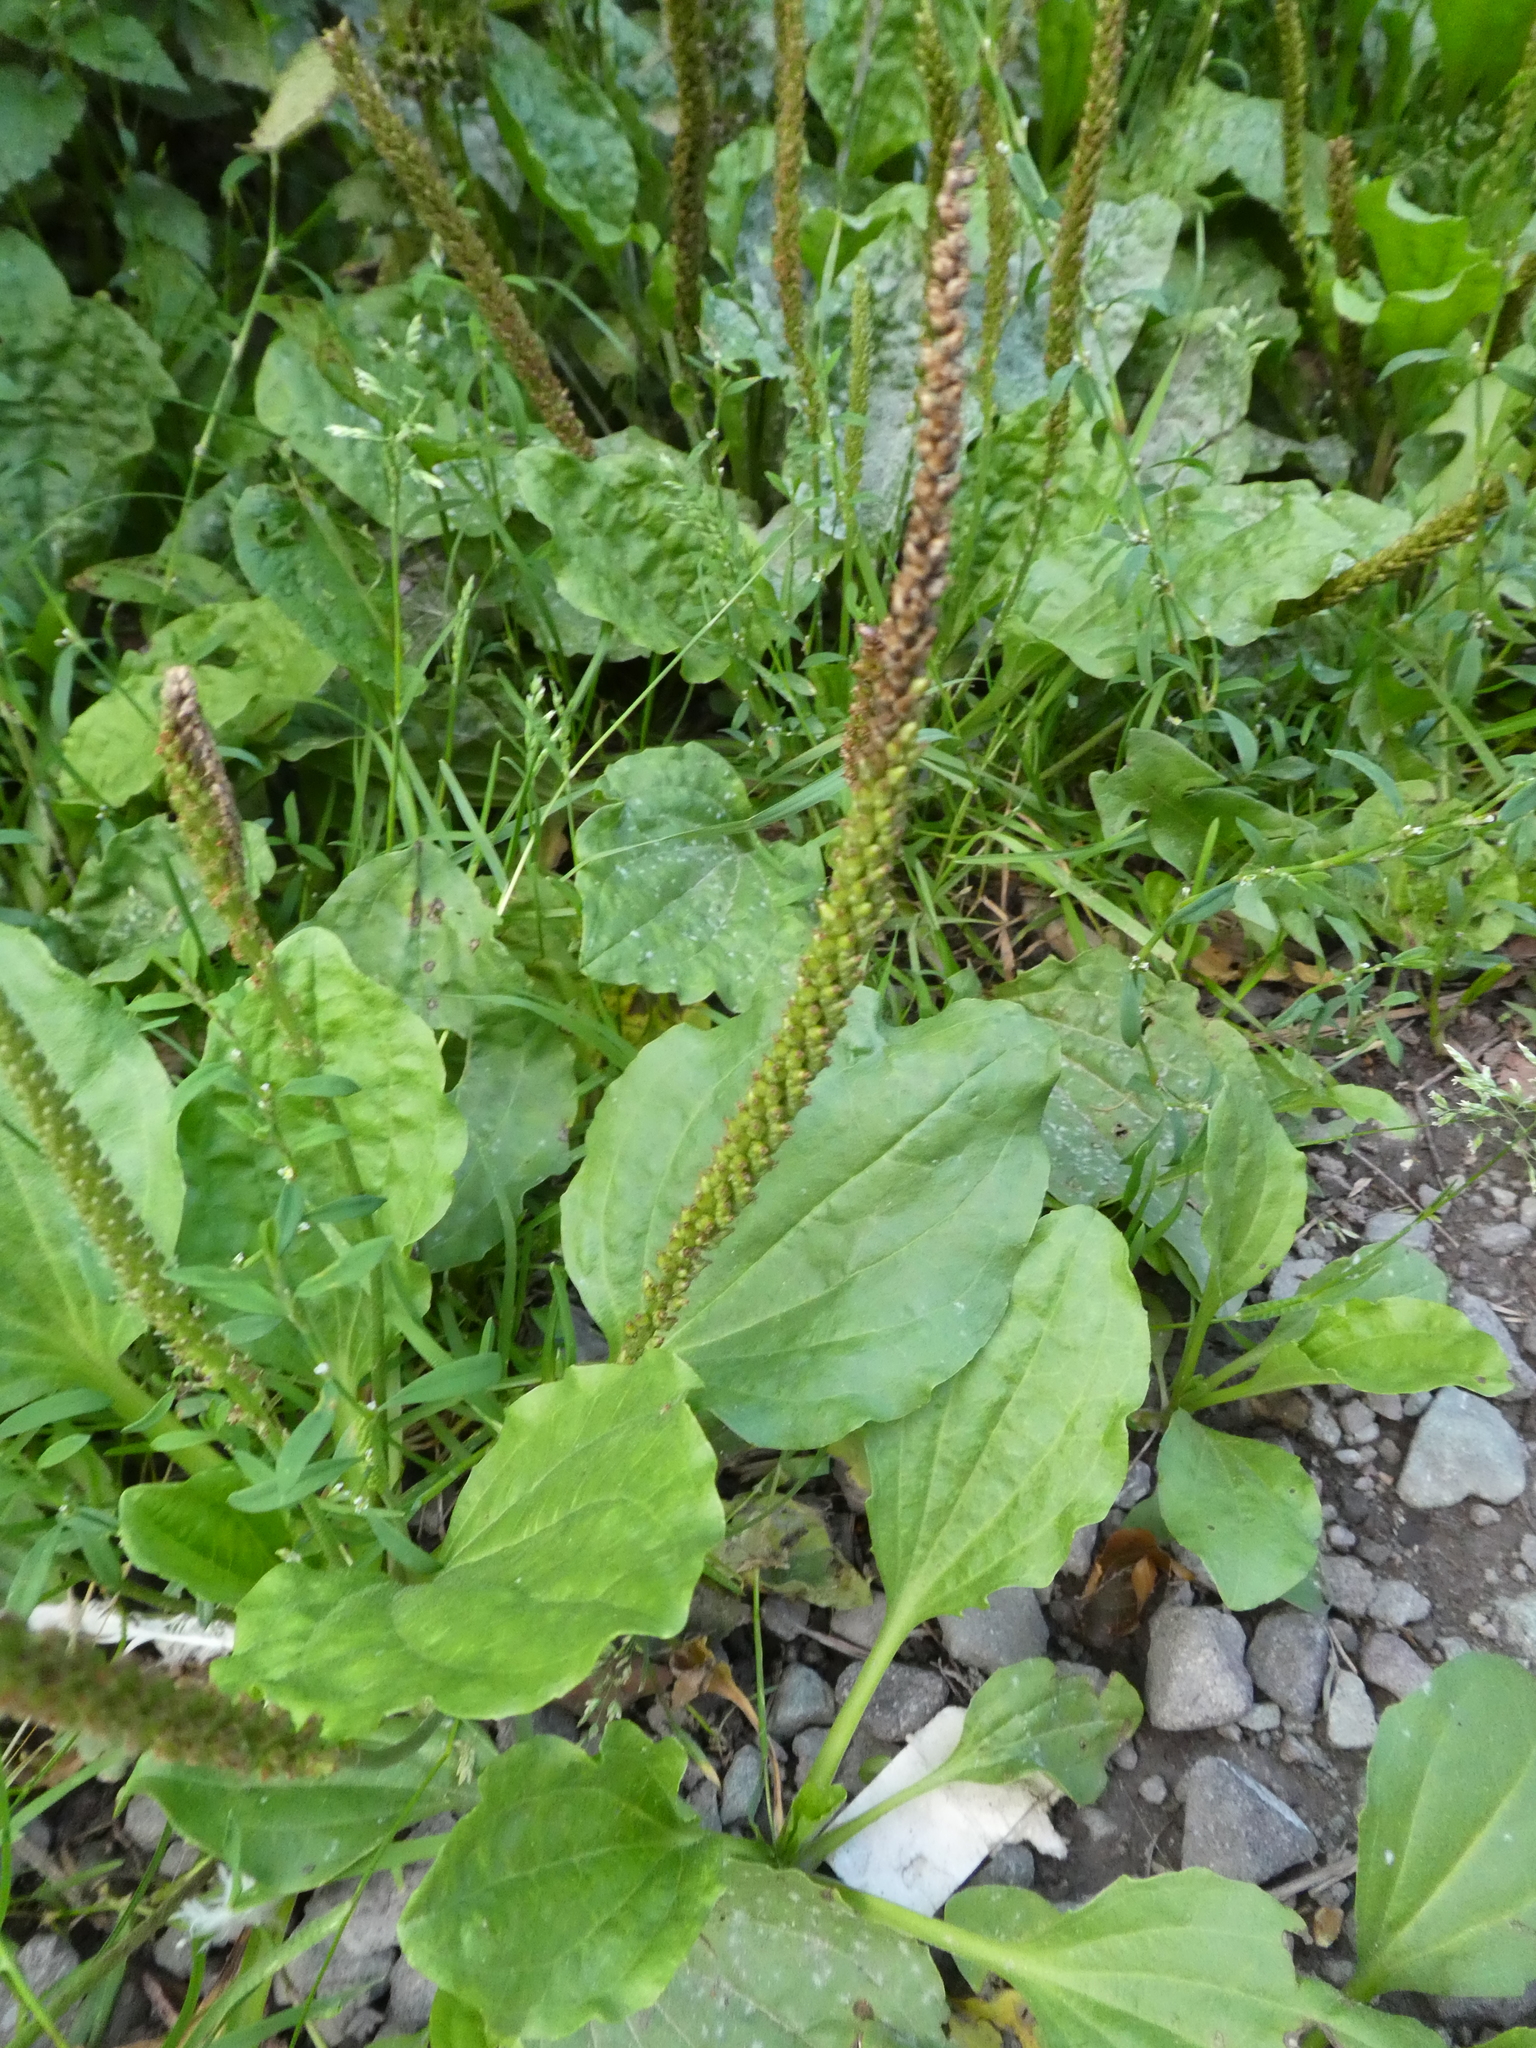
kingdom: Plantae
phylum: Tracheophyta
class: Magnoliopsida
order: Lamiales
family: Plantaginaceae
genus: Plantago
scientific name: Plantago major
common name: Common plantain
